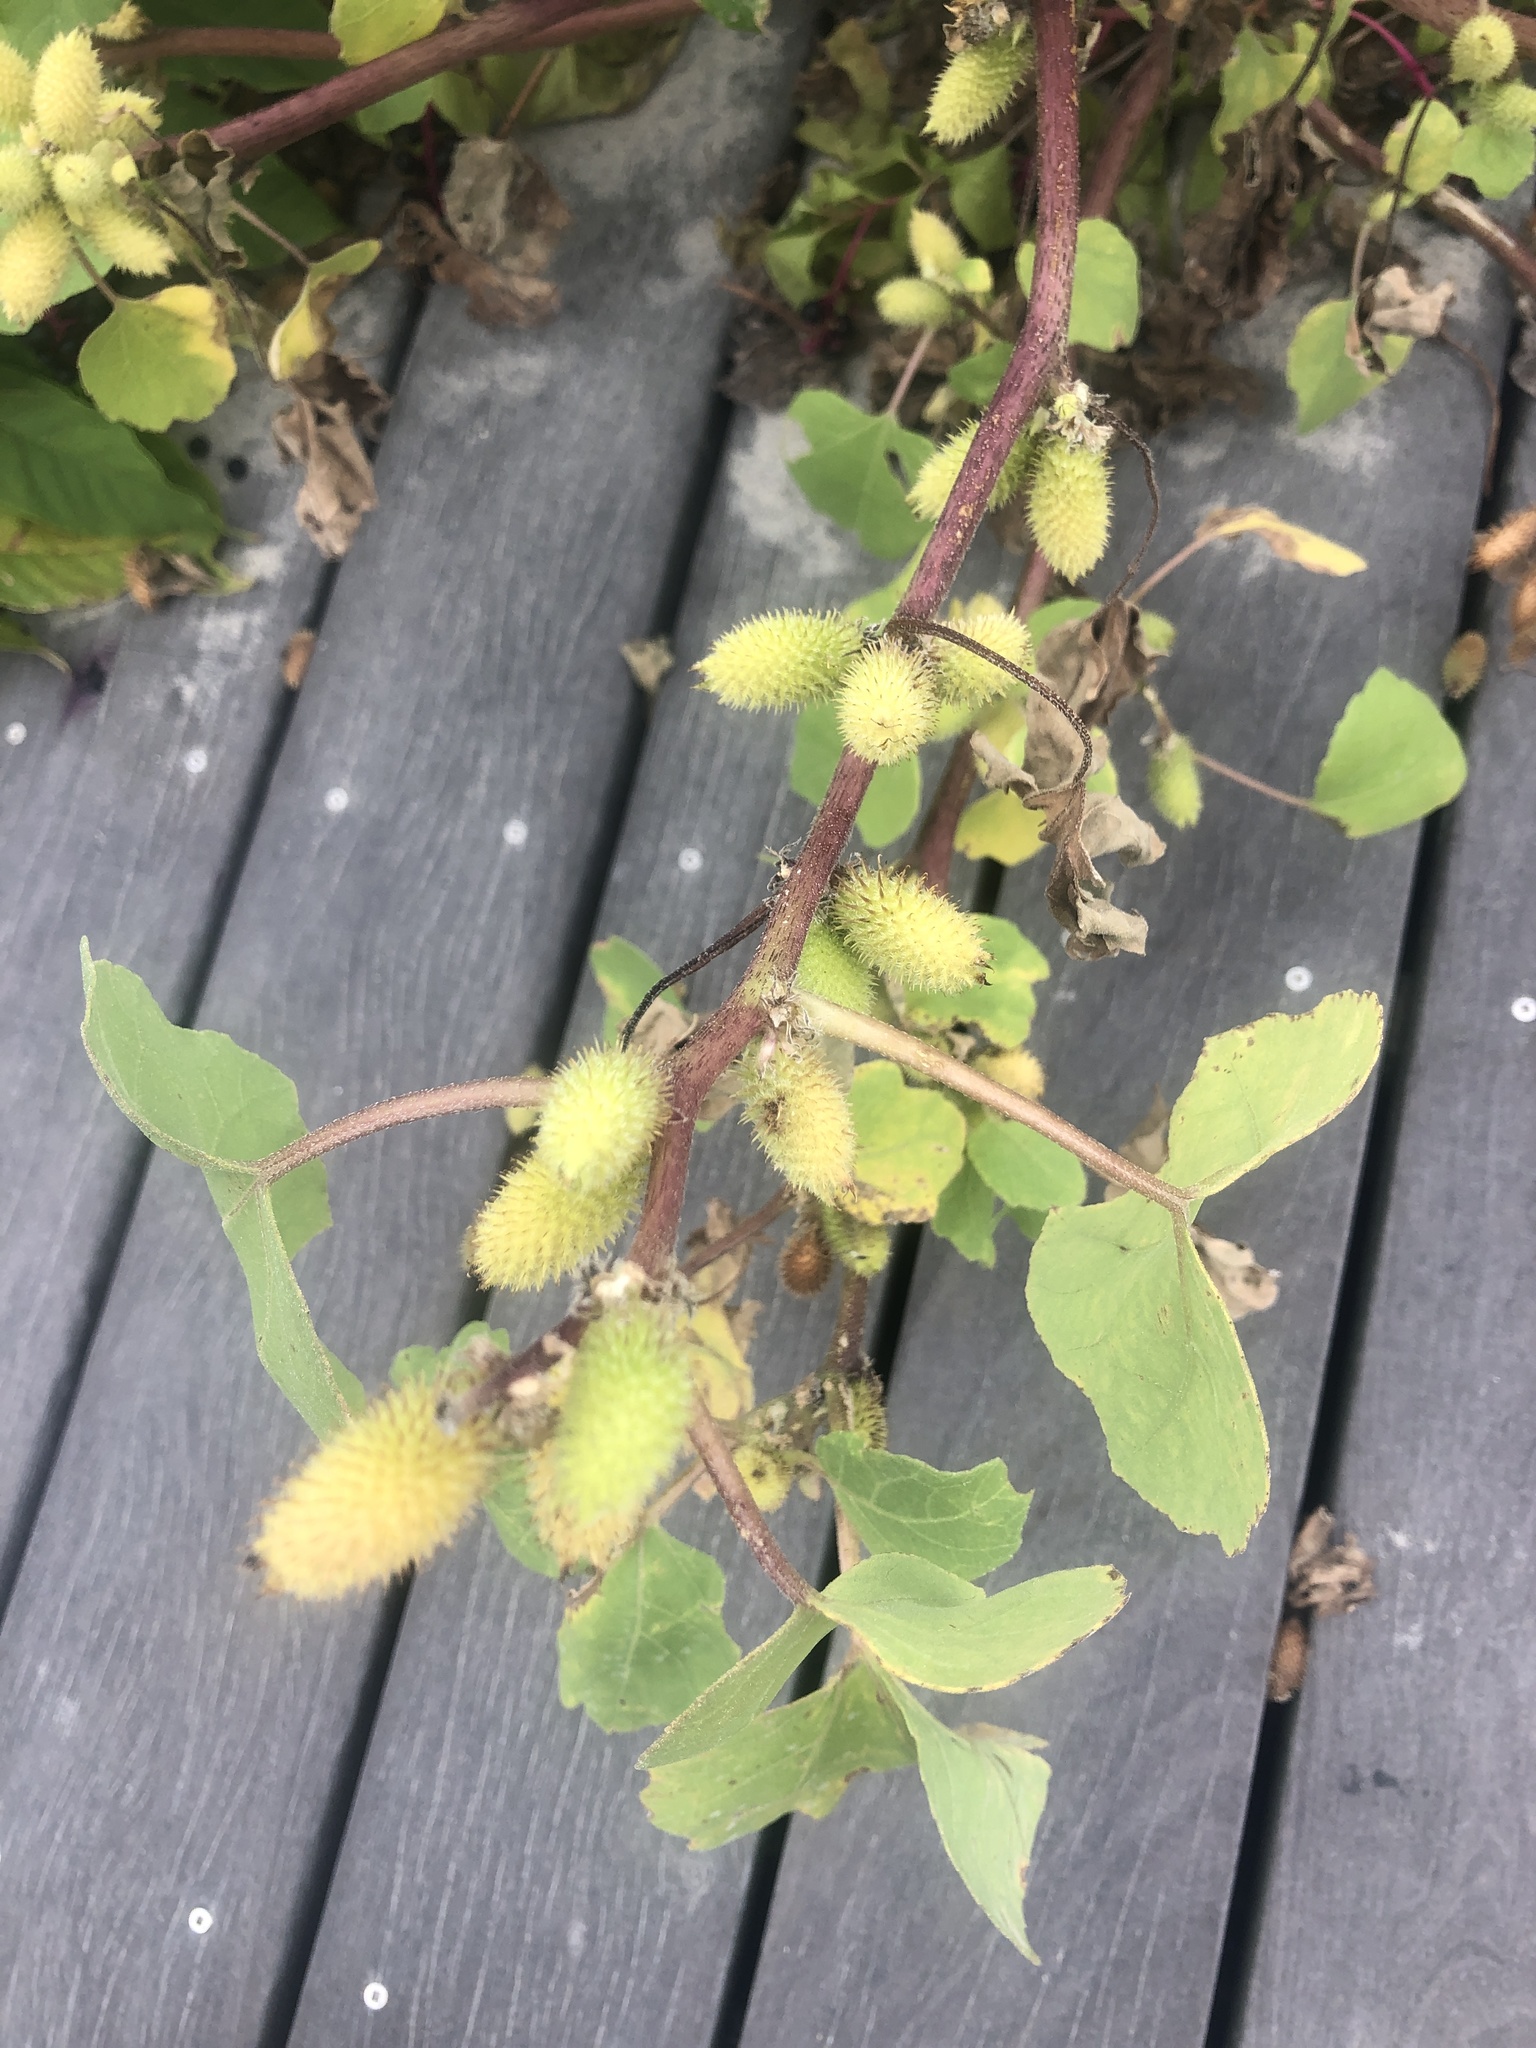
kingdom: Plantae
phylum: Tracheophyta
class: Magnoliopsida
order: Asterales
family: Asteraceae
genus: Xanthium
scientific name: Xanthium strumarium
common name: Rough cocklebur
